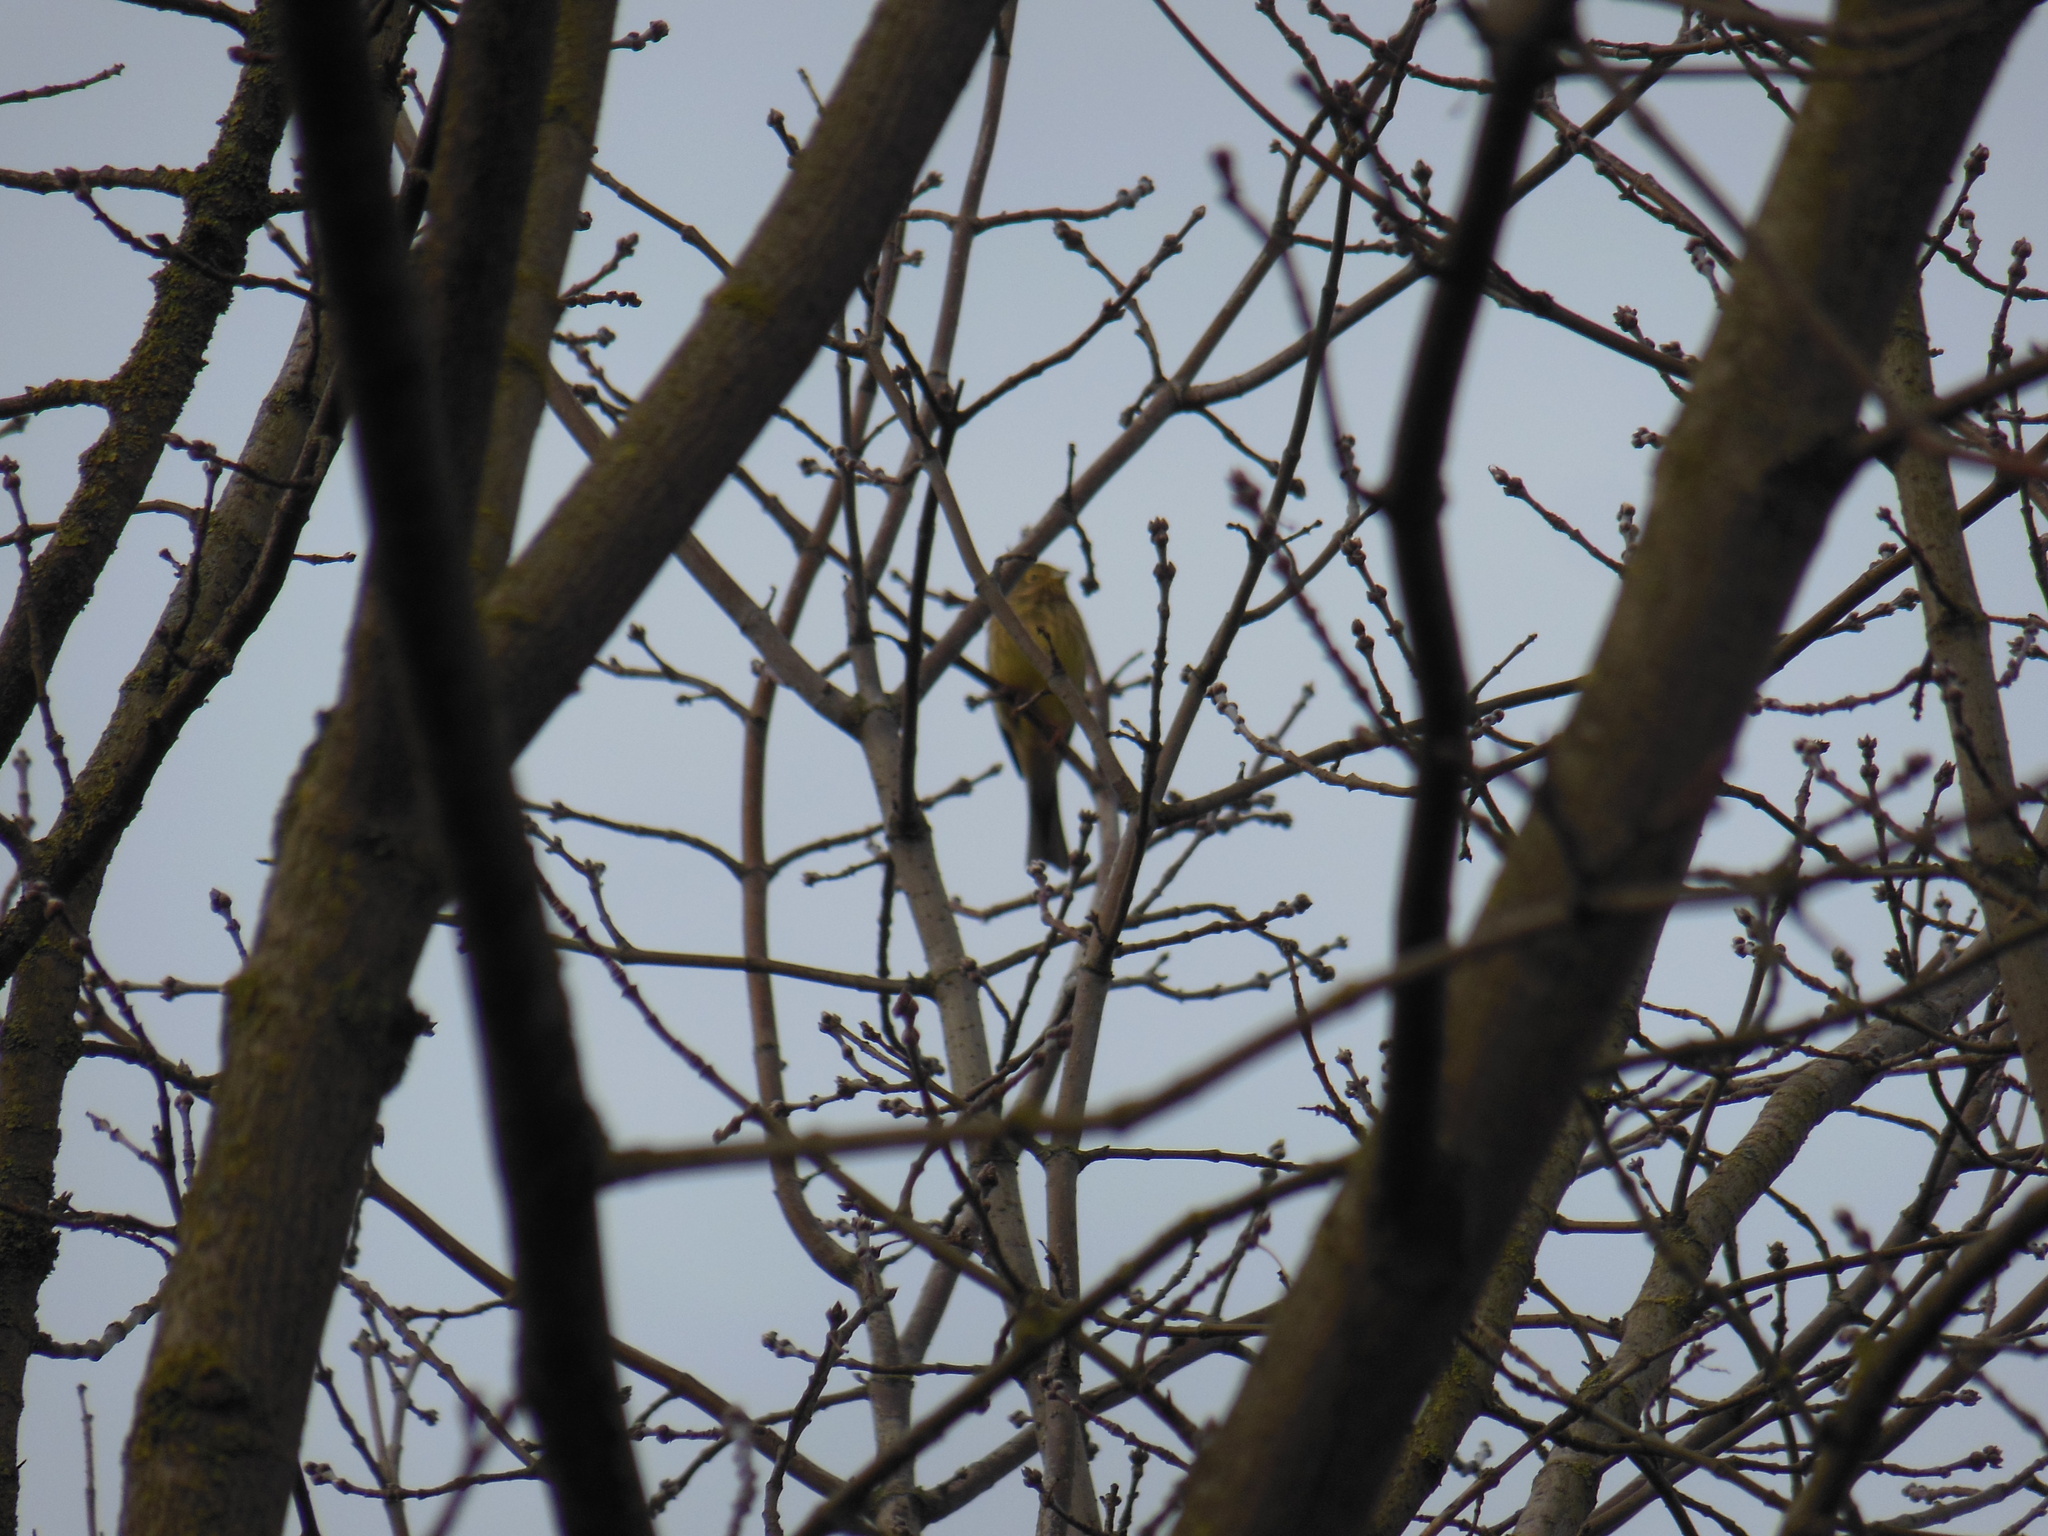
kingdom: Animalia
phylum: Chordata
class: Aves
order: Passeriformes
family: Emberizidae
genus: Emberiza
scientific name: Emberiza citrinella
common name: Yellowhammer
